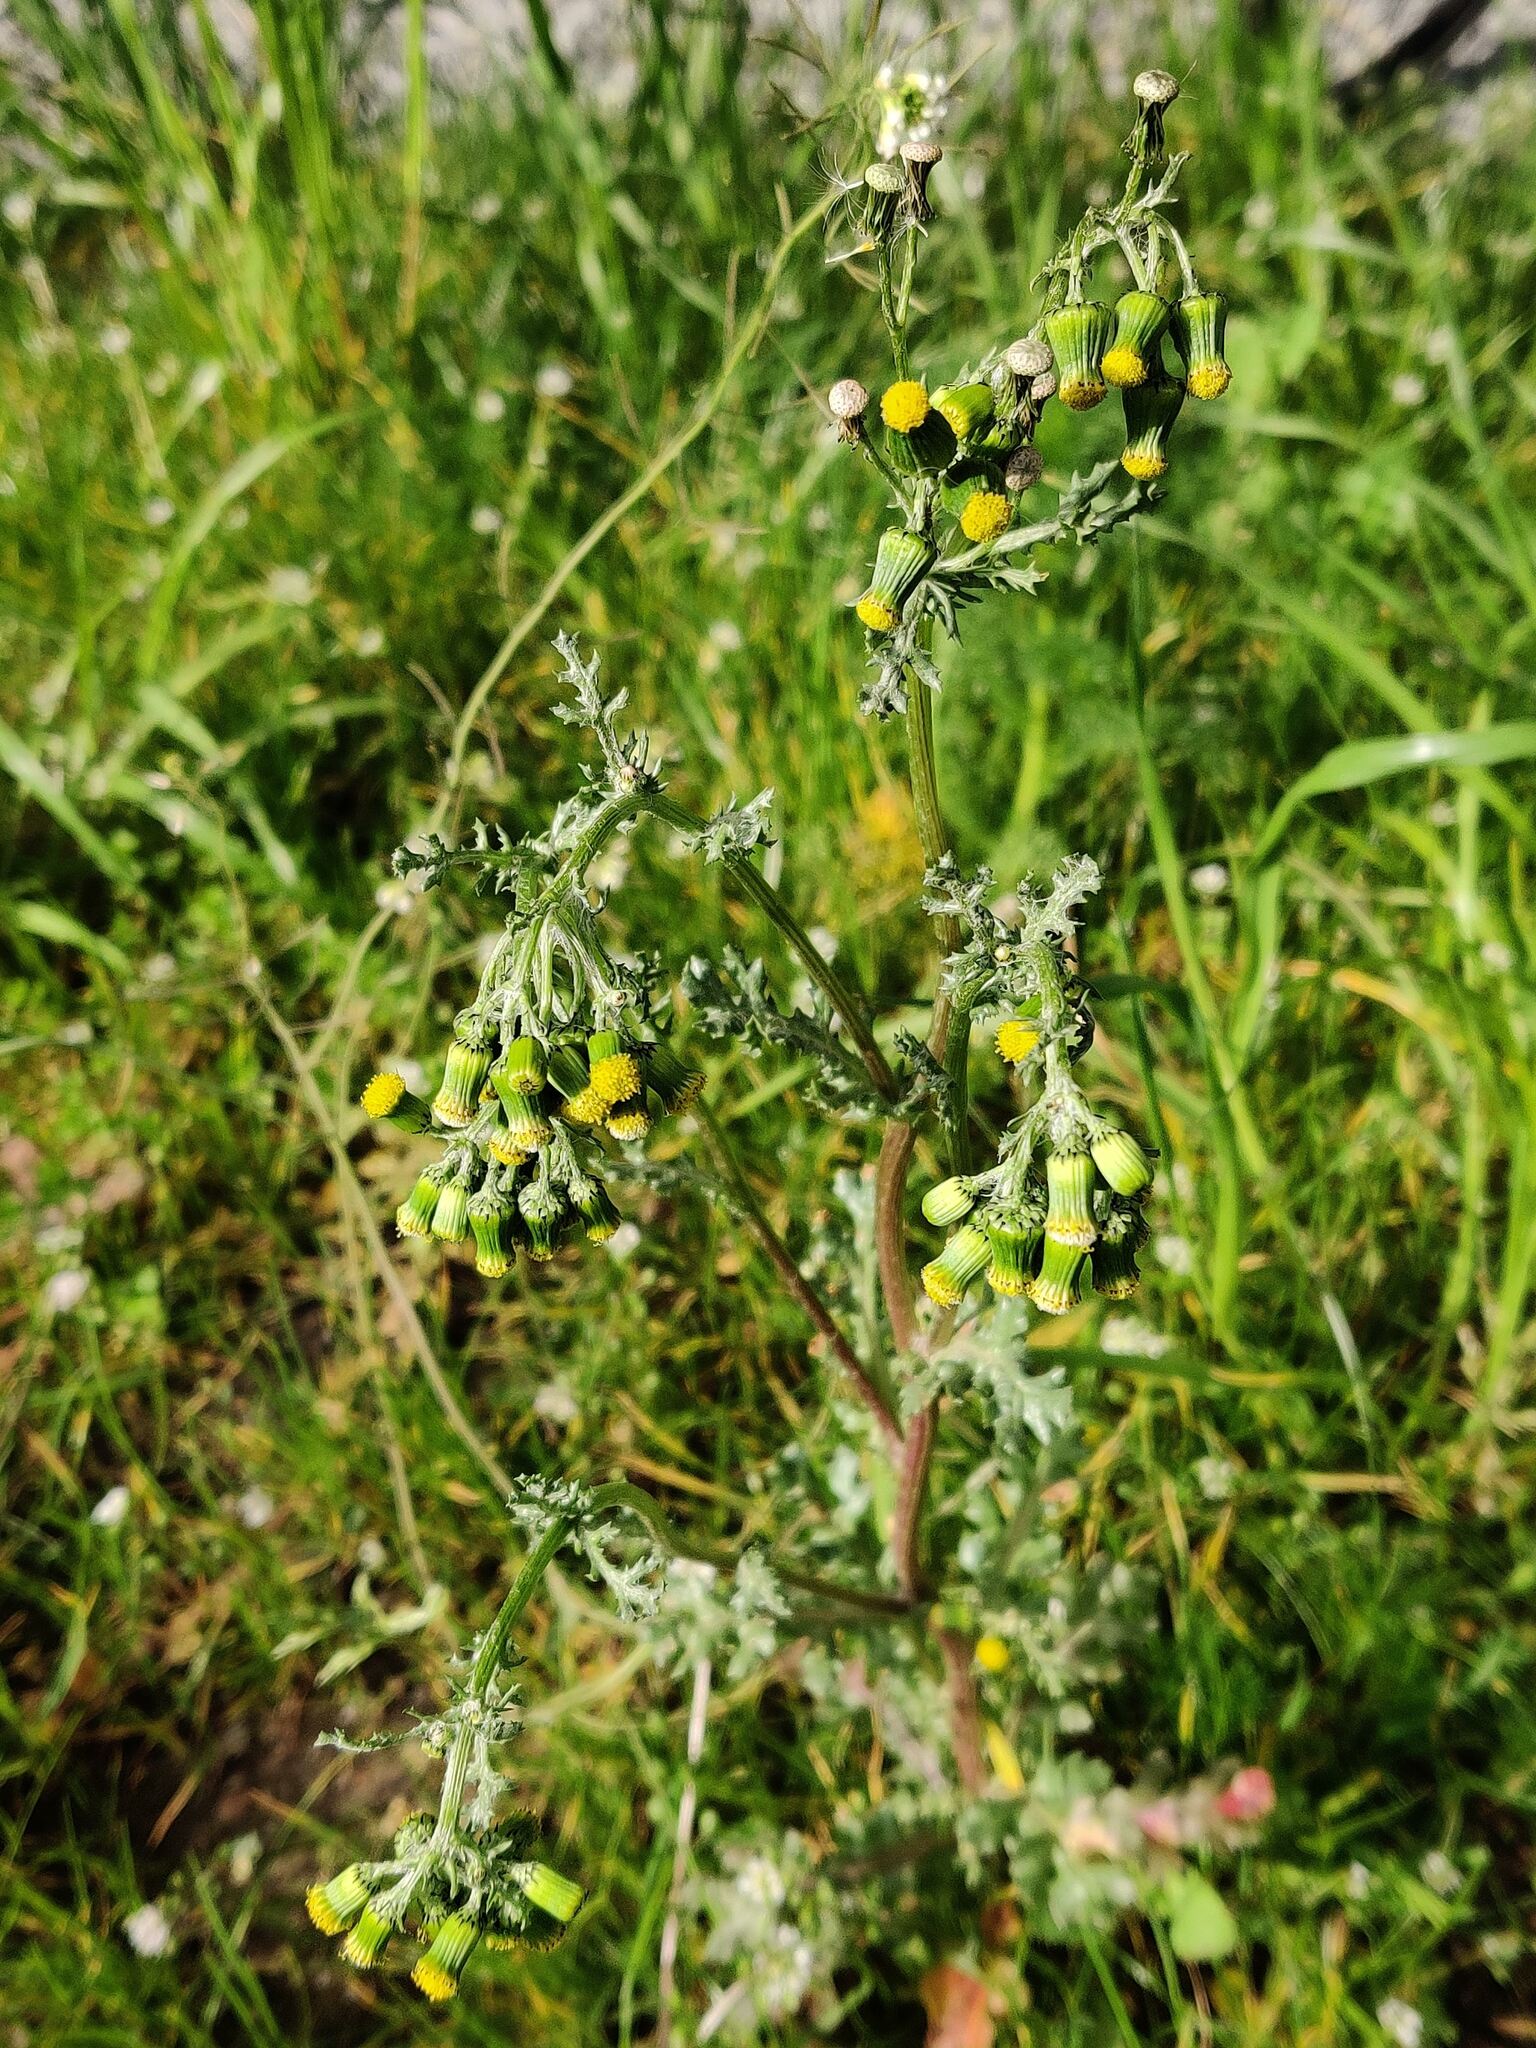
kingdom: Plantae
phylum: Tracheophyta
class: Magnoliopsida
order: Asterales
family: Asteraceae
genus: Senecio
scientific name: Senecio vulgaris
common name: Old-man-in-the-spring
